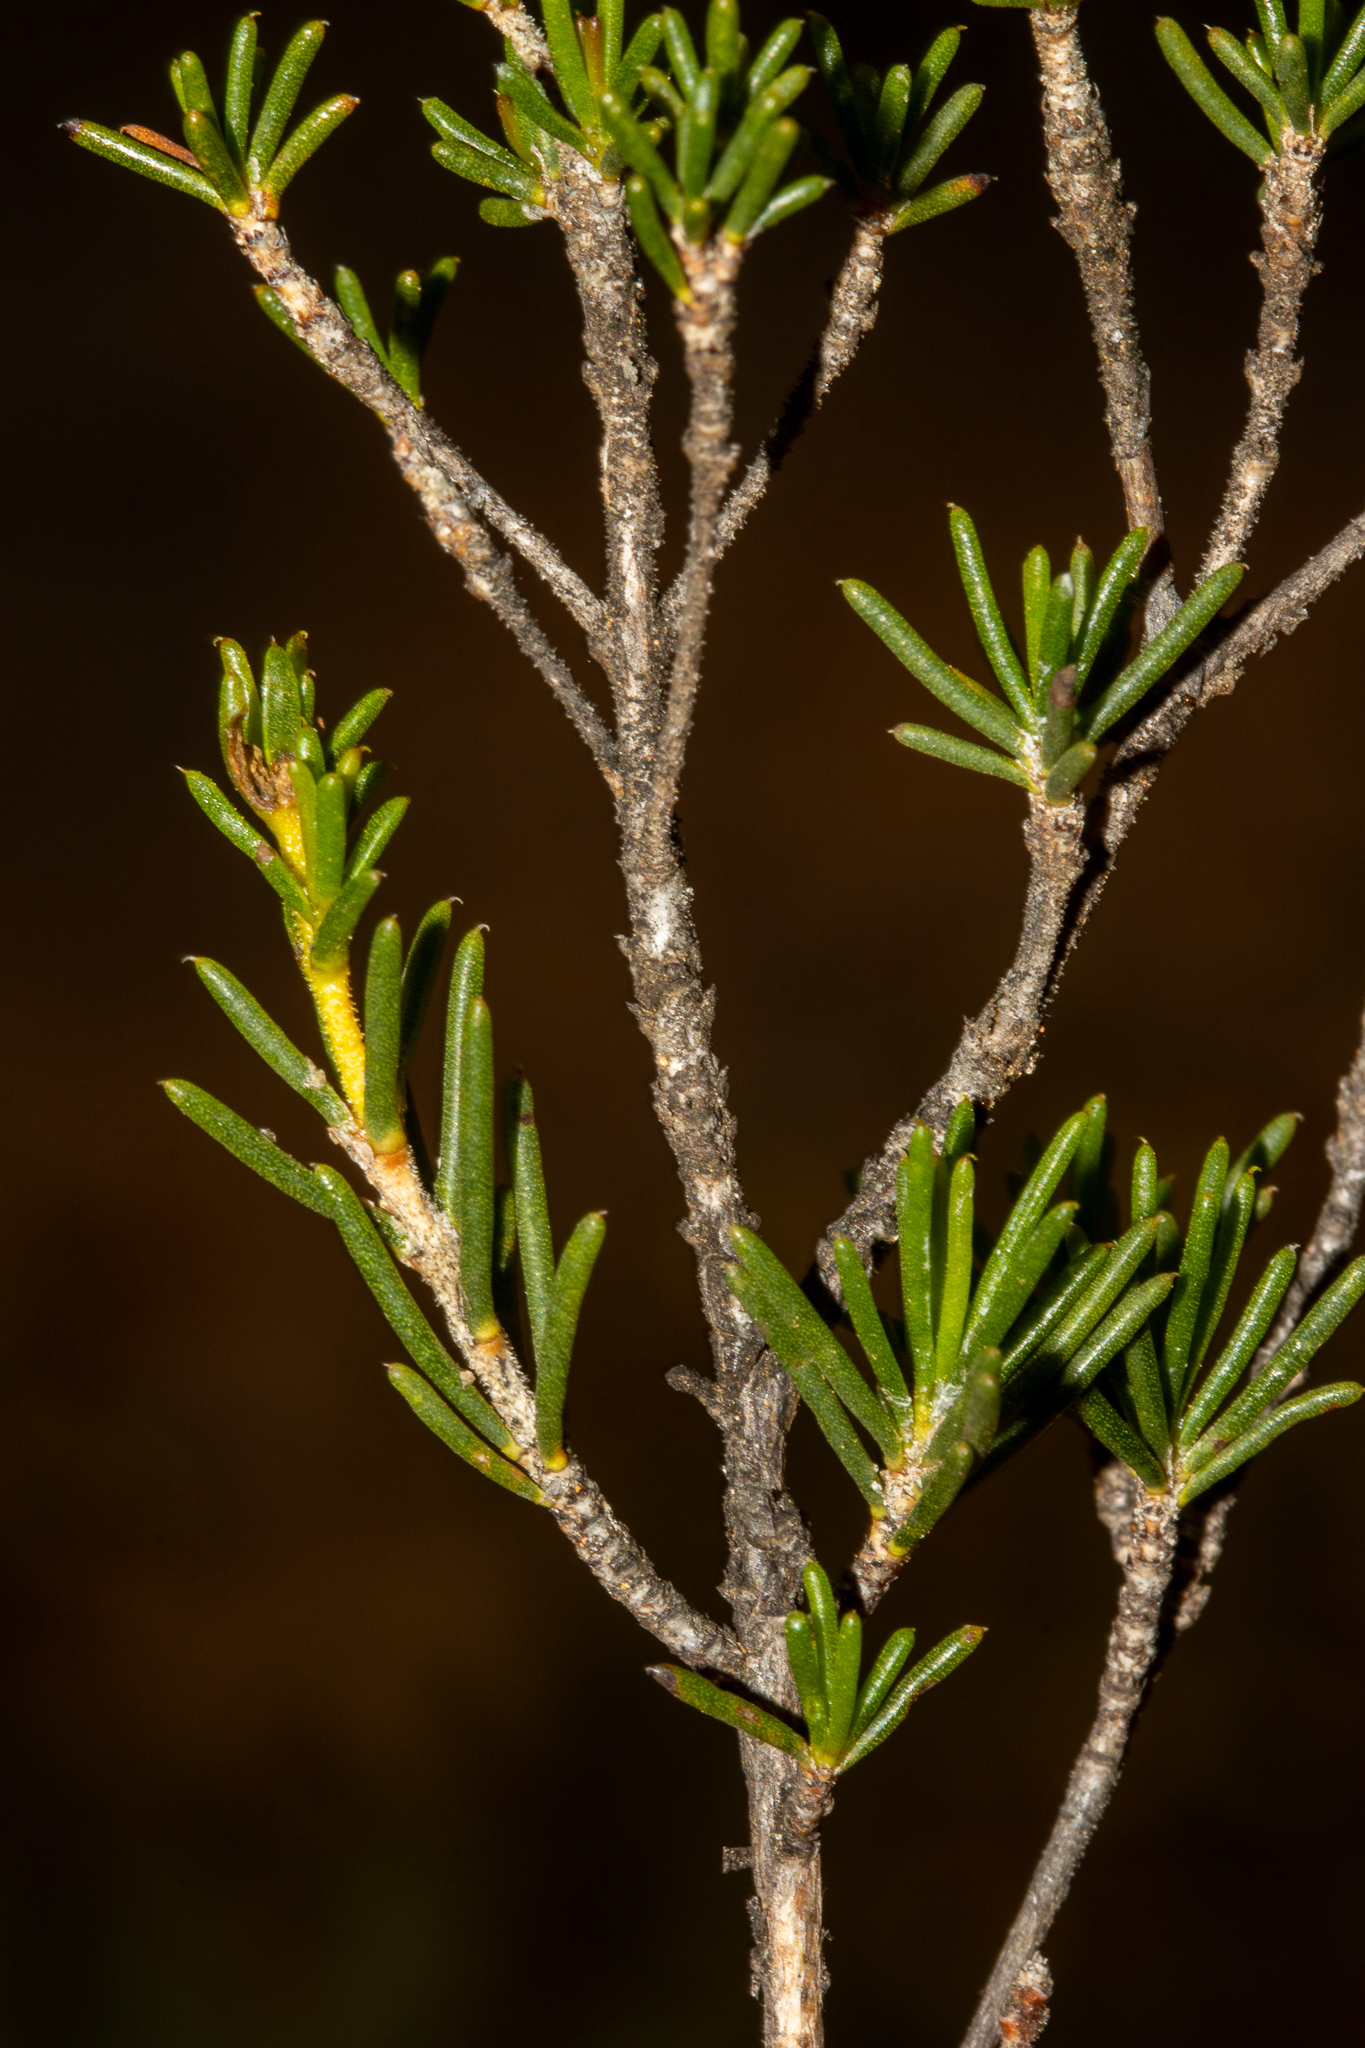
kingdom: Plantae
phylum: Tracheophyta
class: Magnoliopsida
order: Myrtales
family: Myrtaceae
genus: Verticordia
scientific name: Verticordia chrysanthella
